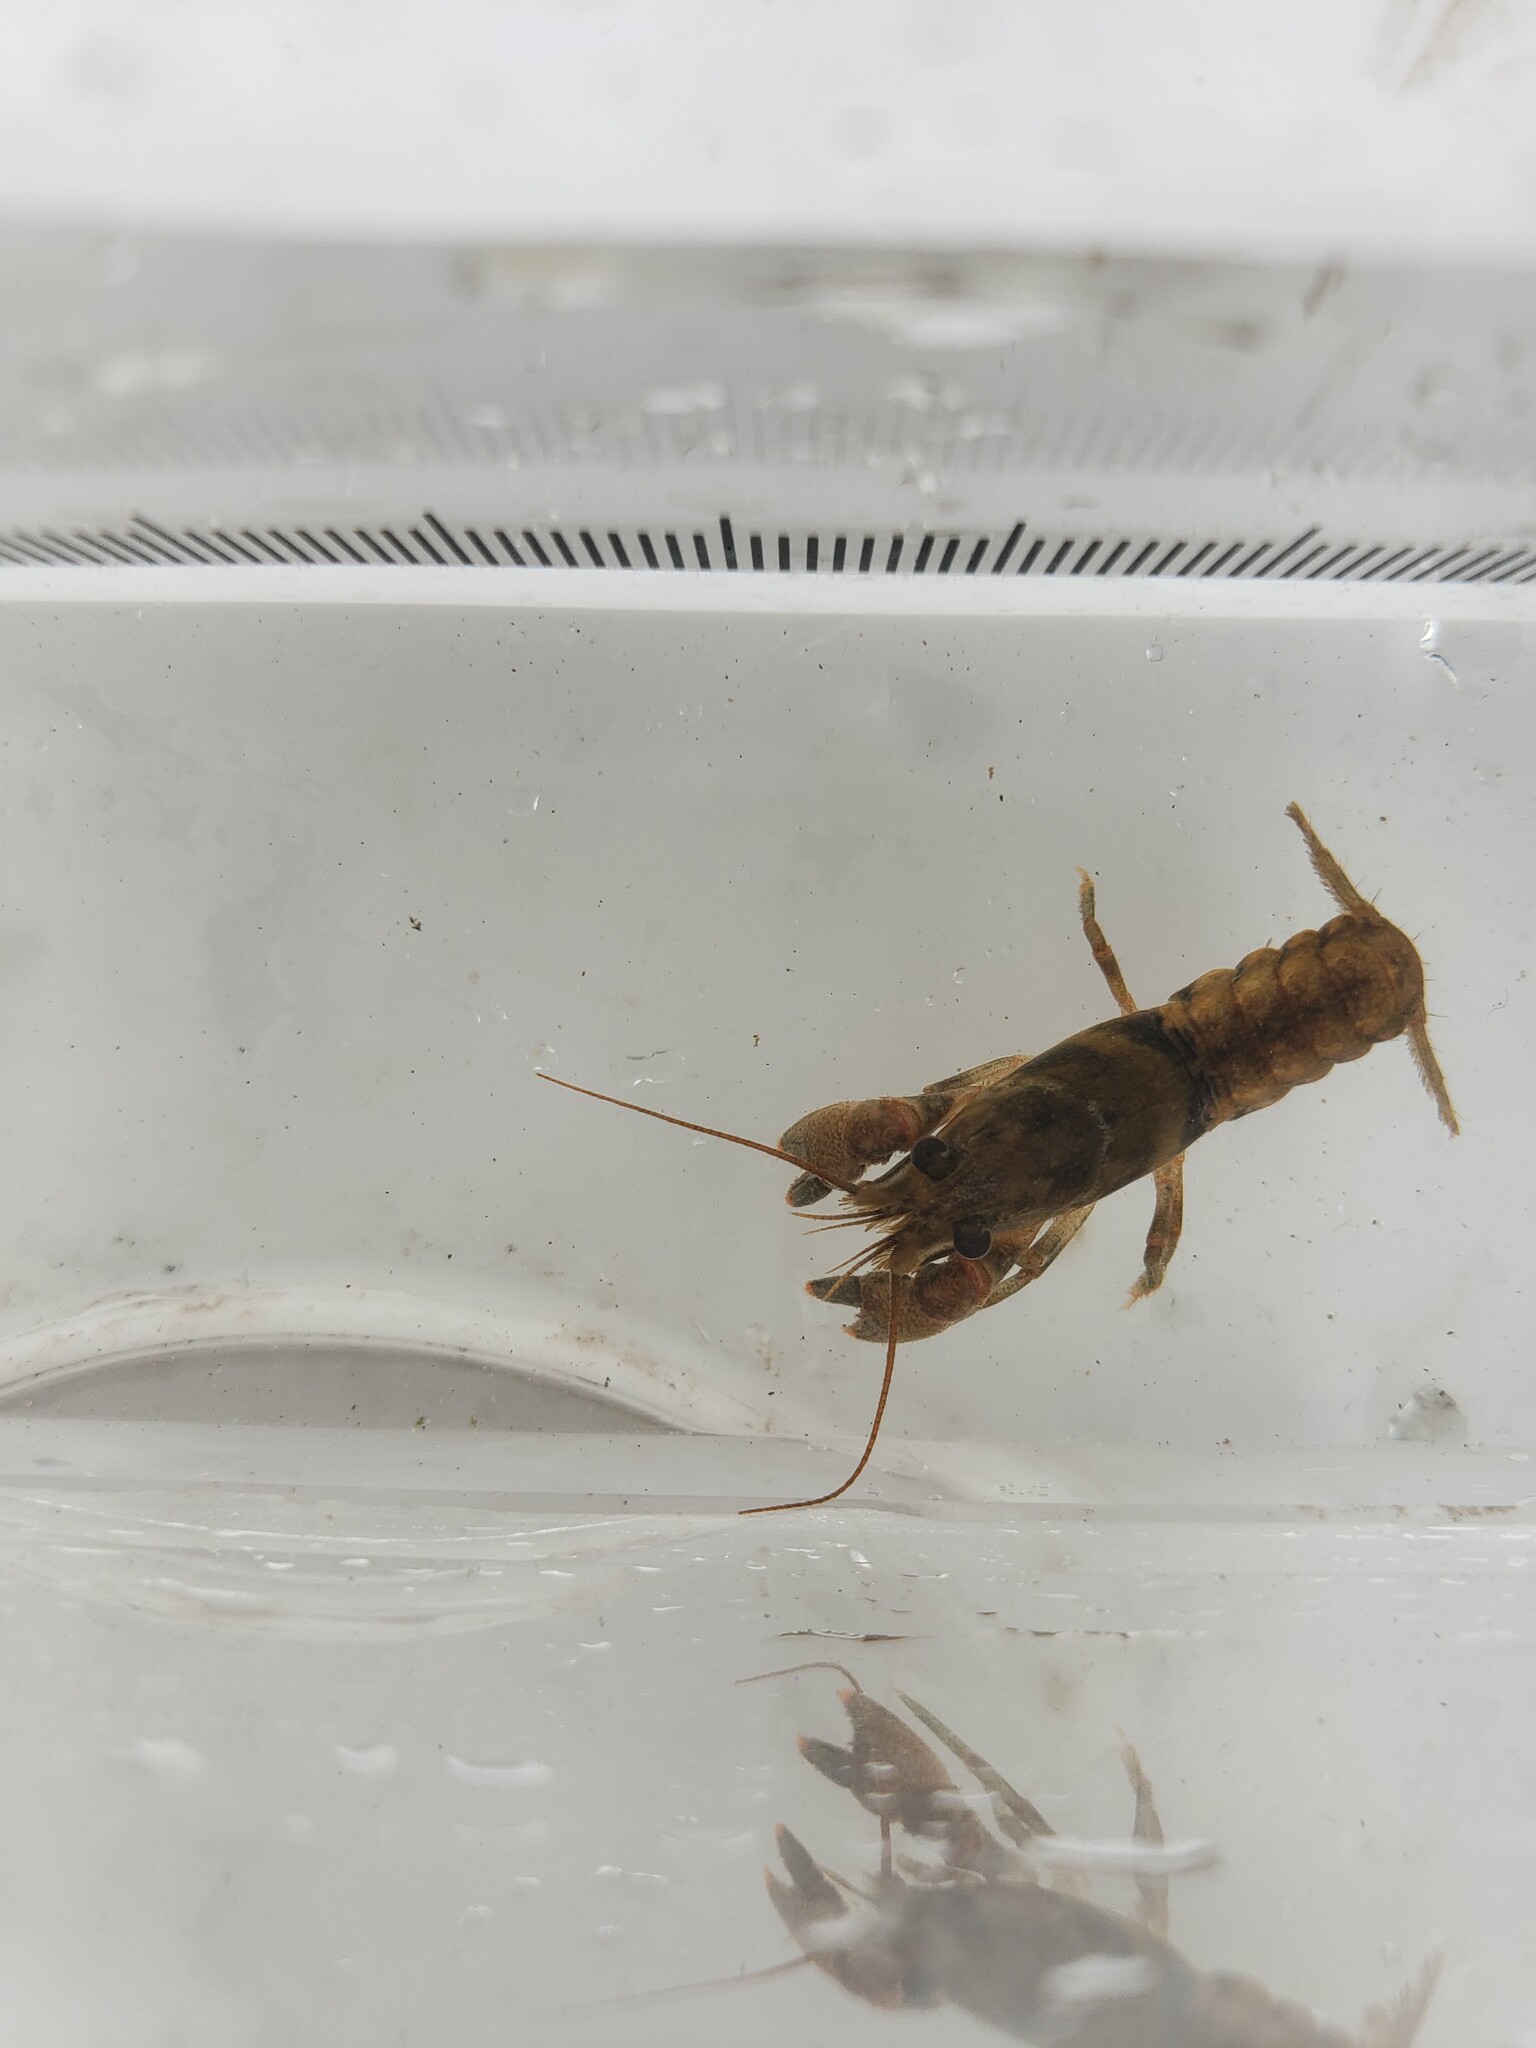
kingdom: Animalia
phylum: Arthropoda
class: Malacostraca
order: Decapoda
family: Cambaridae
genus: Faxonius
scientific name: Faxonius propinquus
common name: Northern clearwater crayfish
